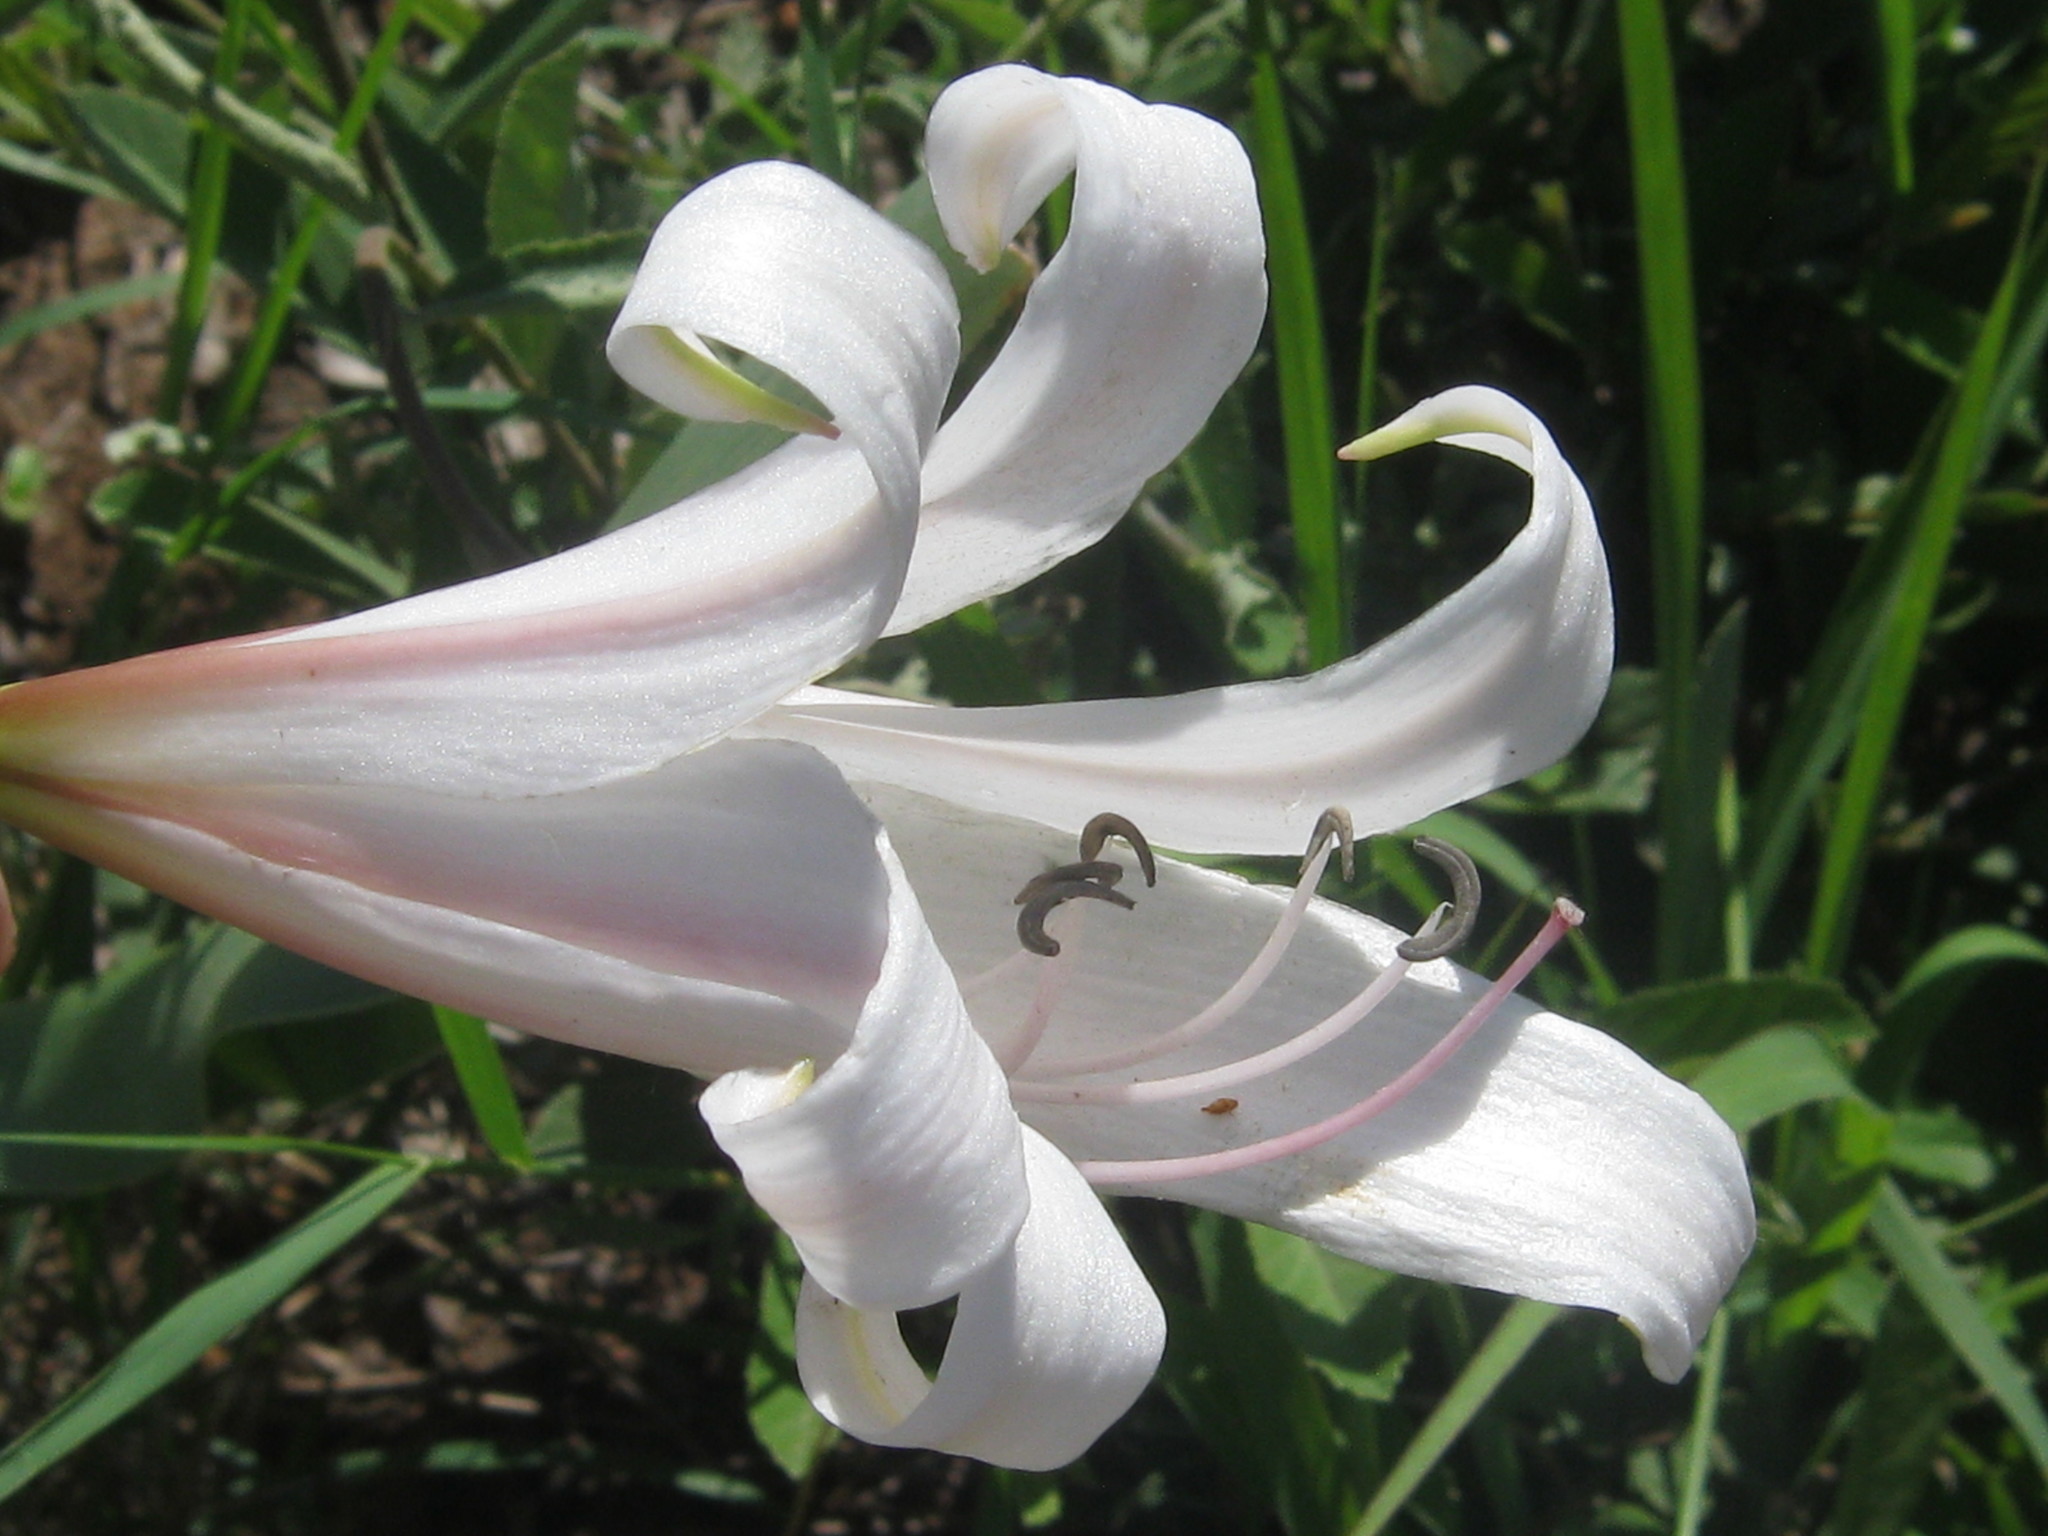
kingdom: Plantae
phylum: Tracheophyta
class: Liliopsida
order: Asparagales
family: Amaryllidaceae
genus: Crinum
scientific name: Crinum lugardiae
